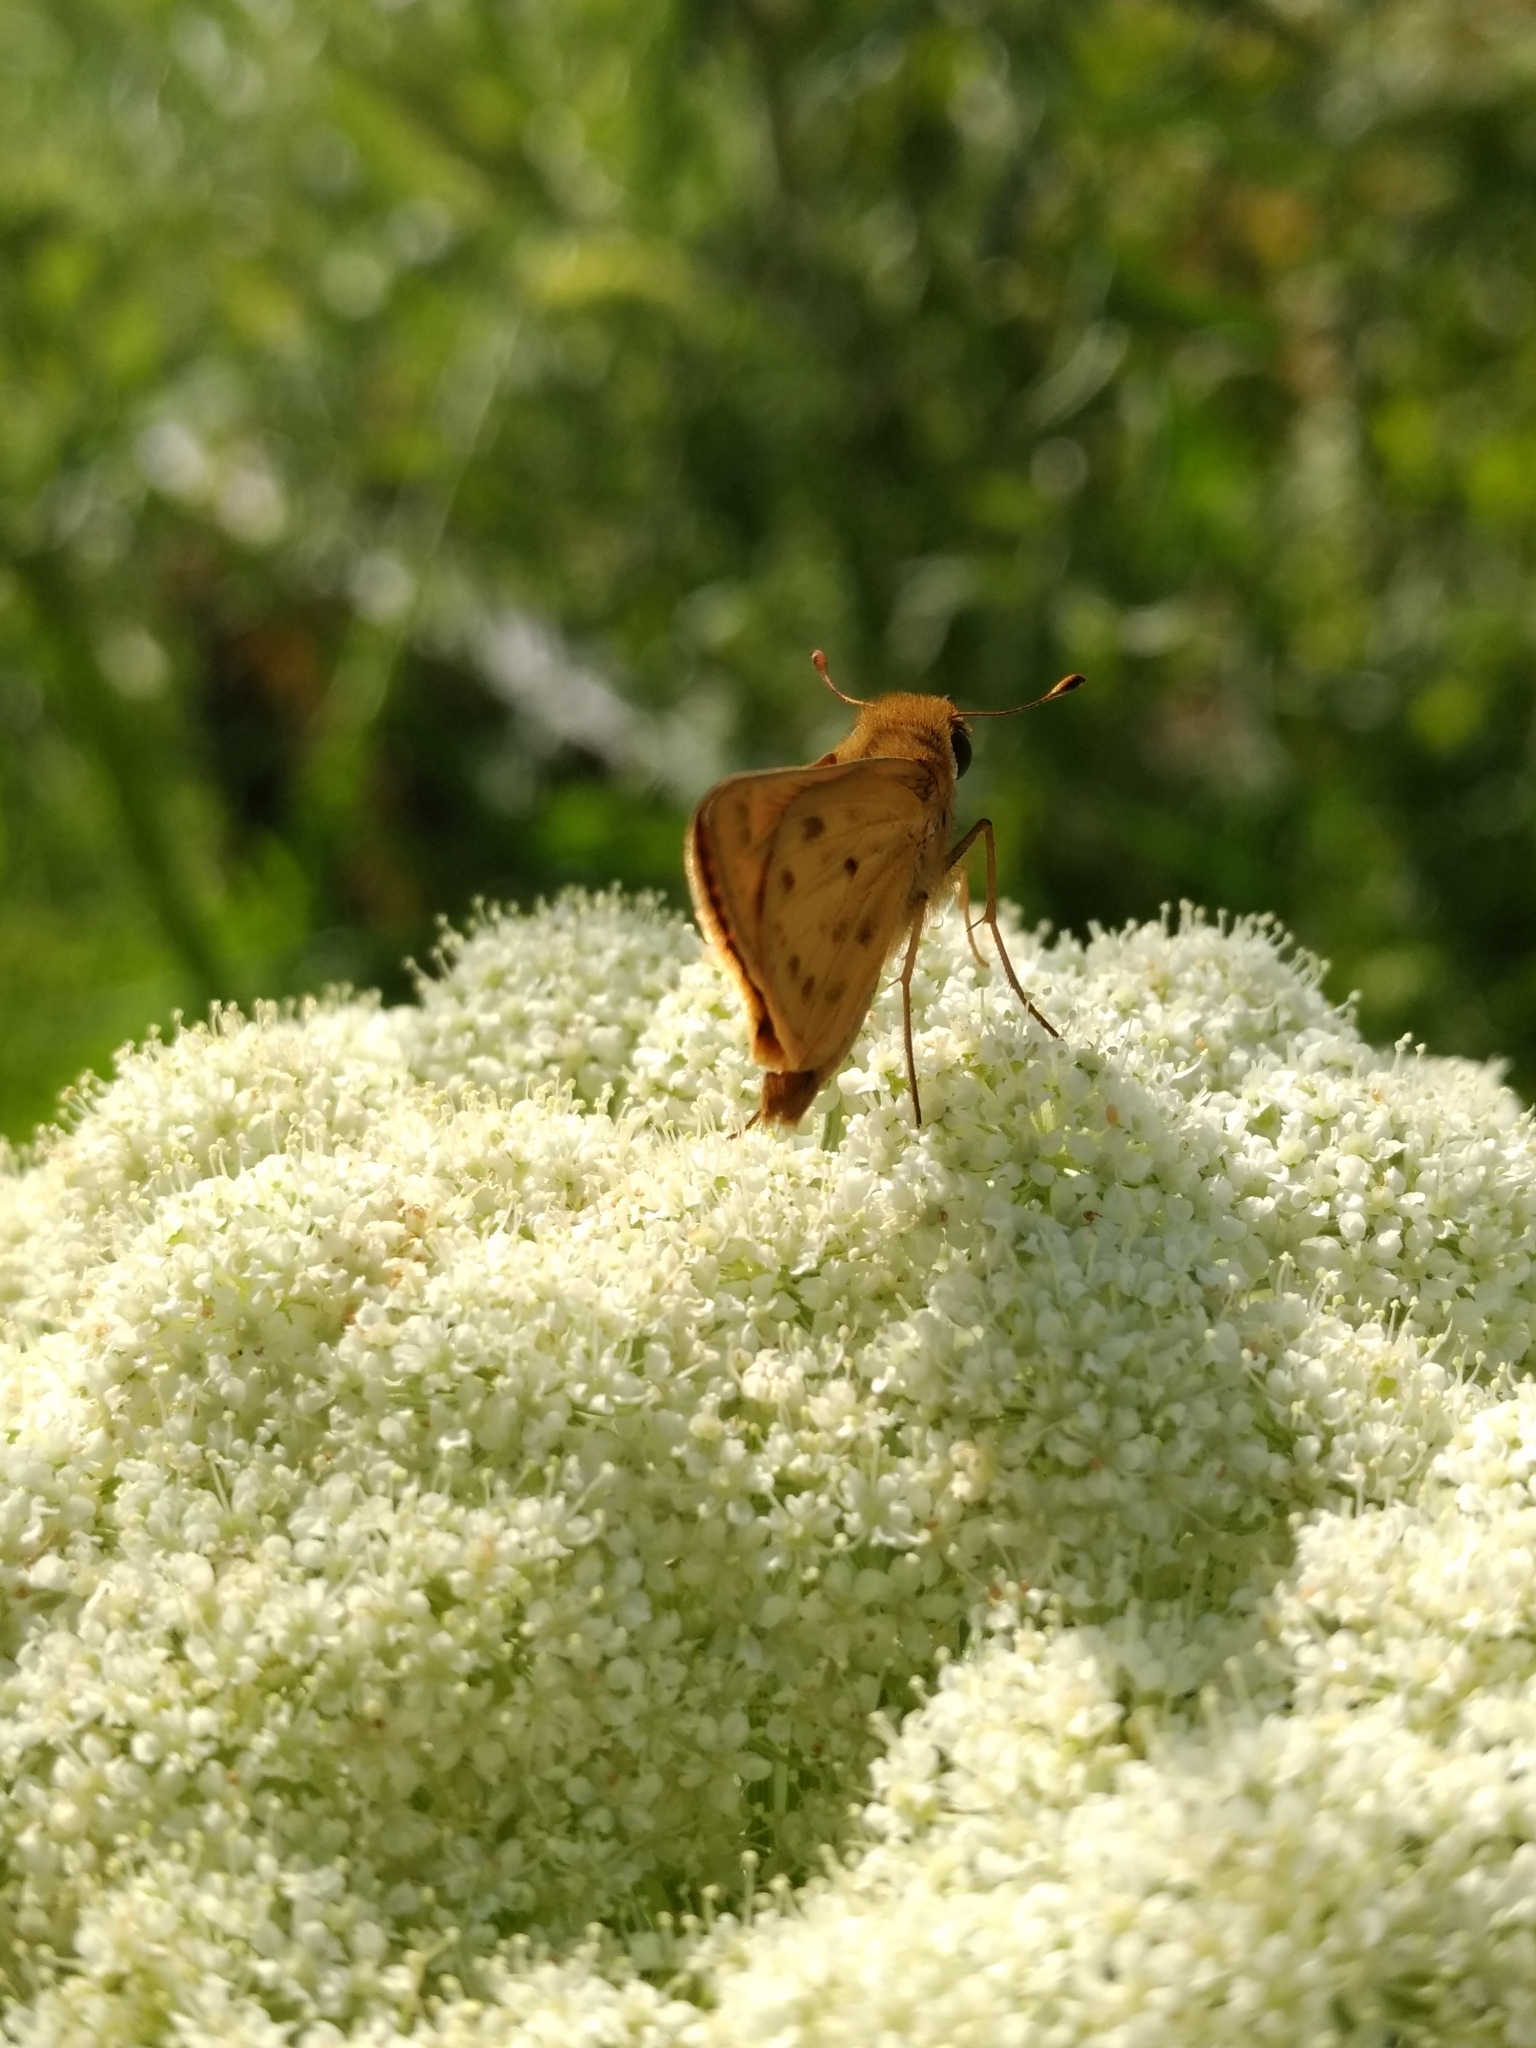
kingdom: Animalia
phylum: Arthropoda
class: Insecta
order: Lepidoptera
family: Hesperiidae
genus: Hylephila
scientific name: Hylephila phyleus
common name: Fiery skipper
